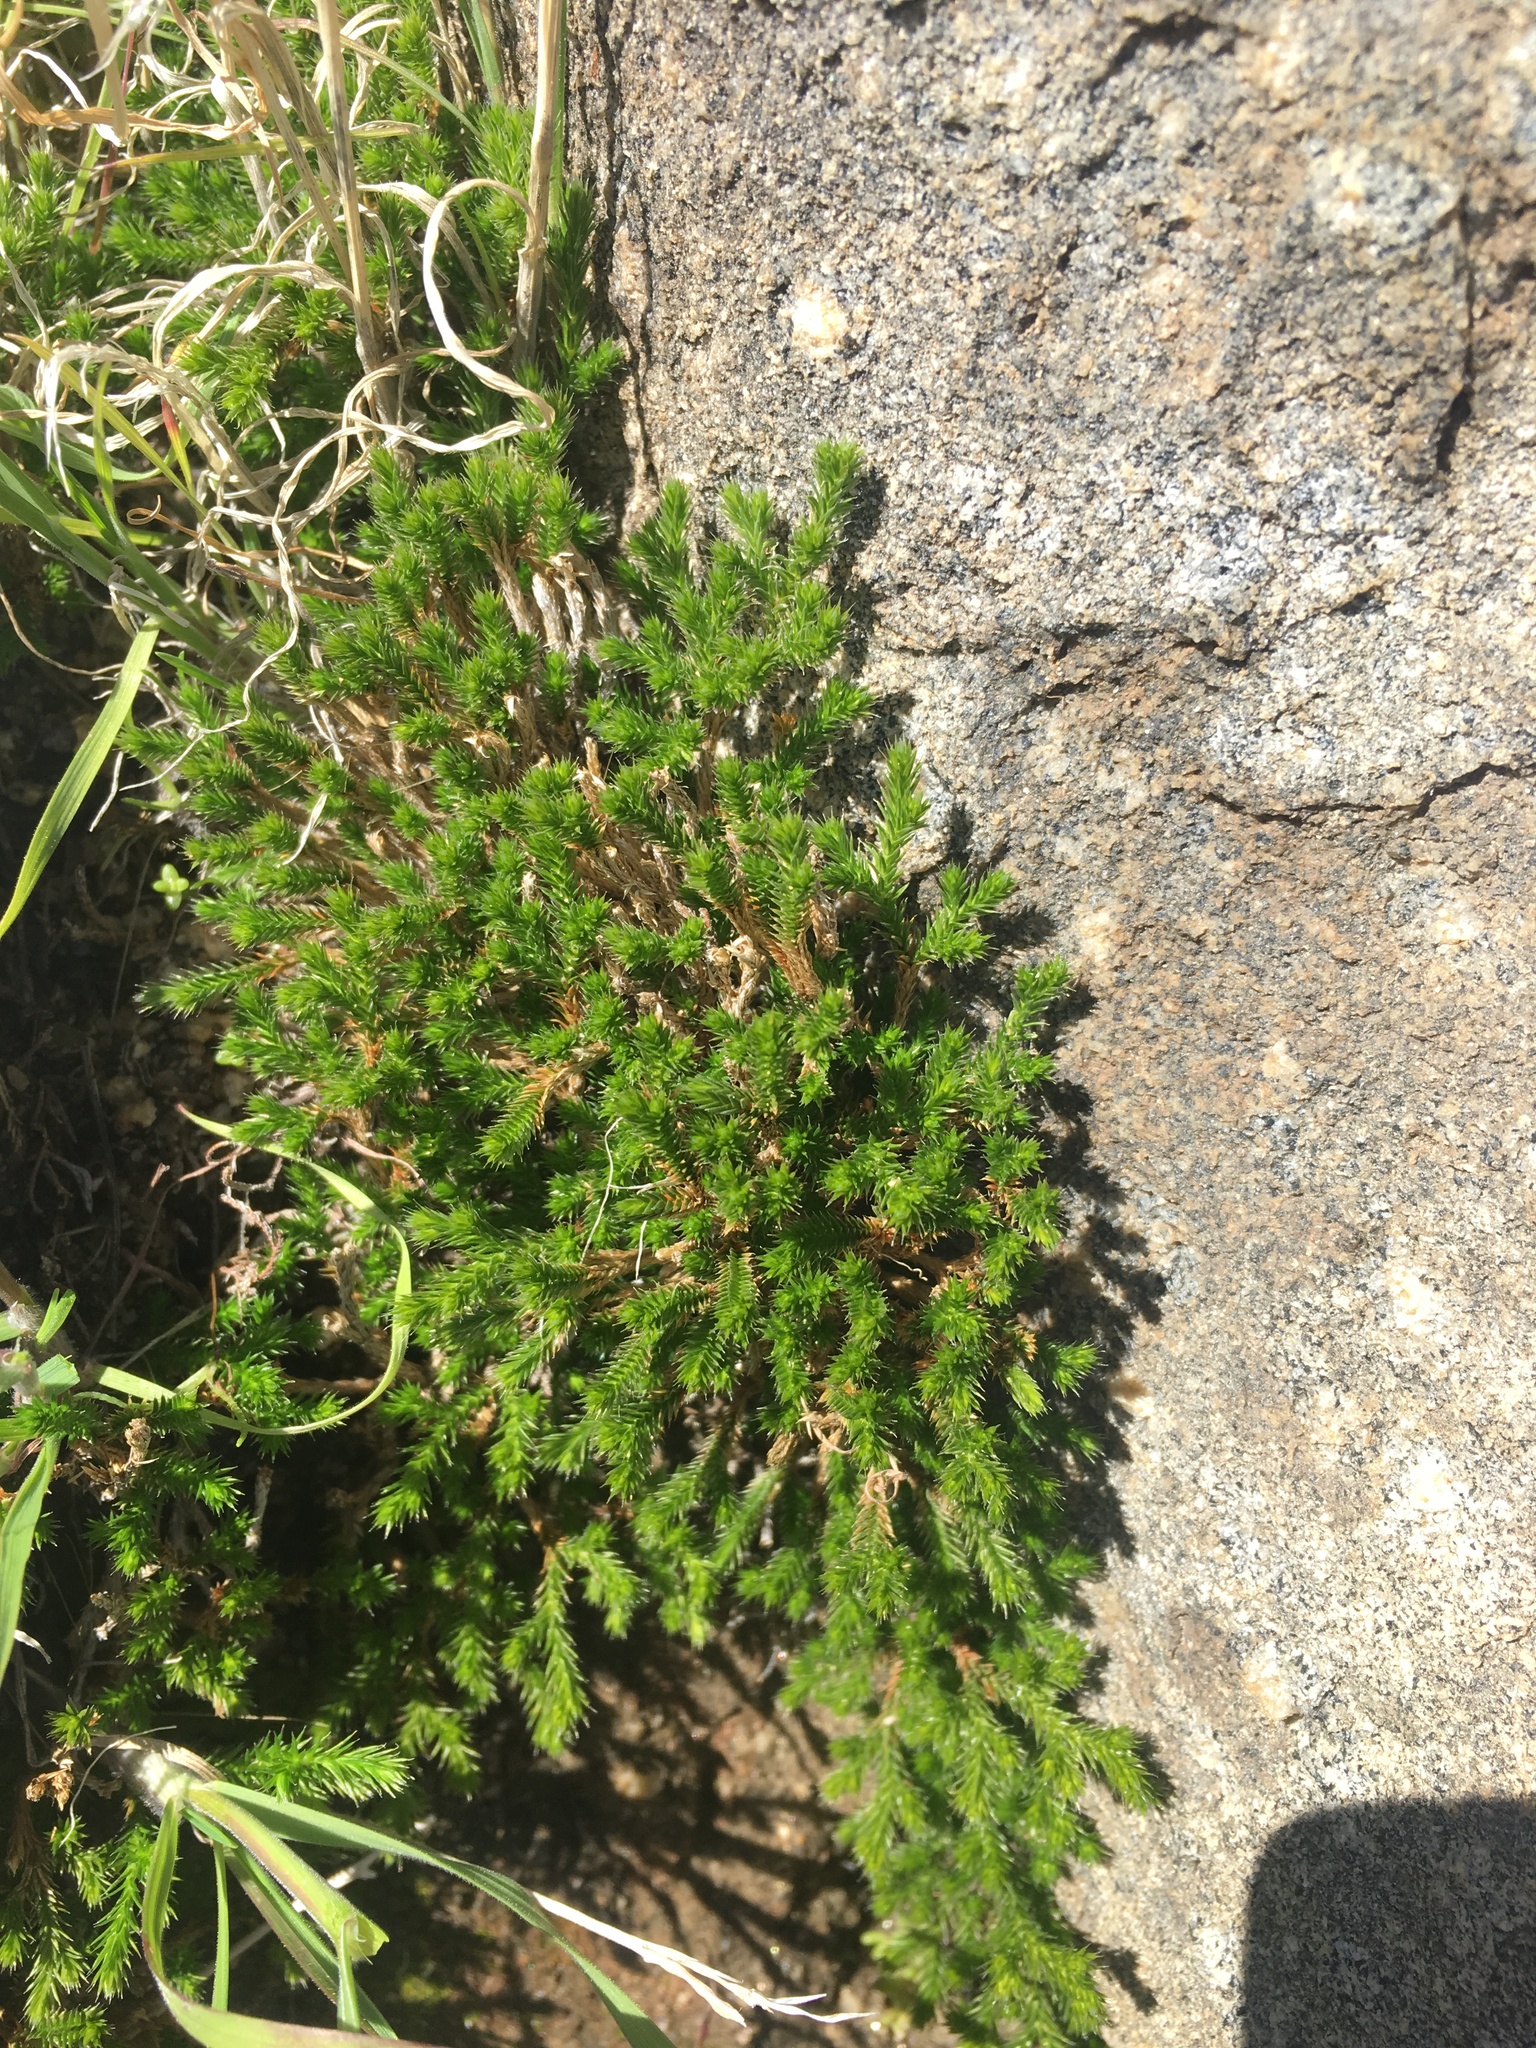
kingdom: Plantae
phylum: Tracheophyta
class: Lycopodiopsida
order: Selaginellales
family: Selaginellaceae
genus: Selaginella
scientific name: Selaginella bigelovii
